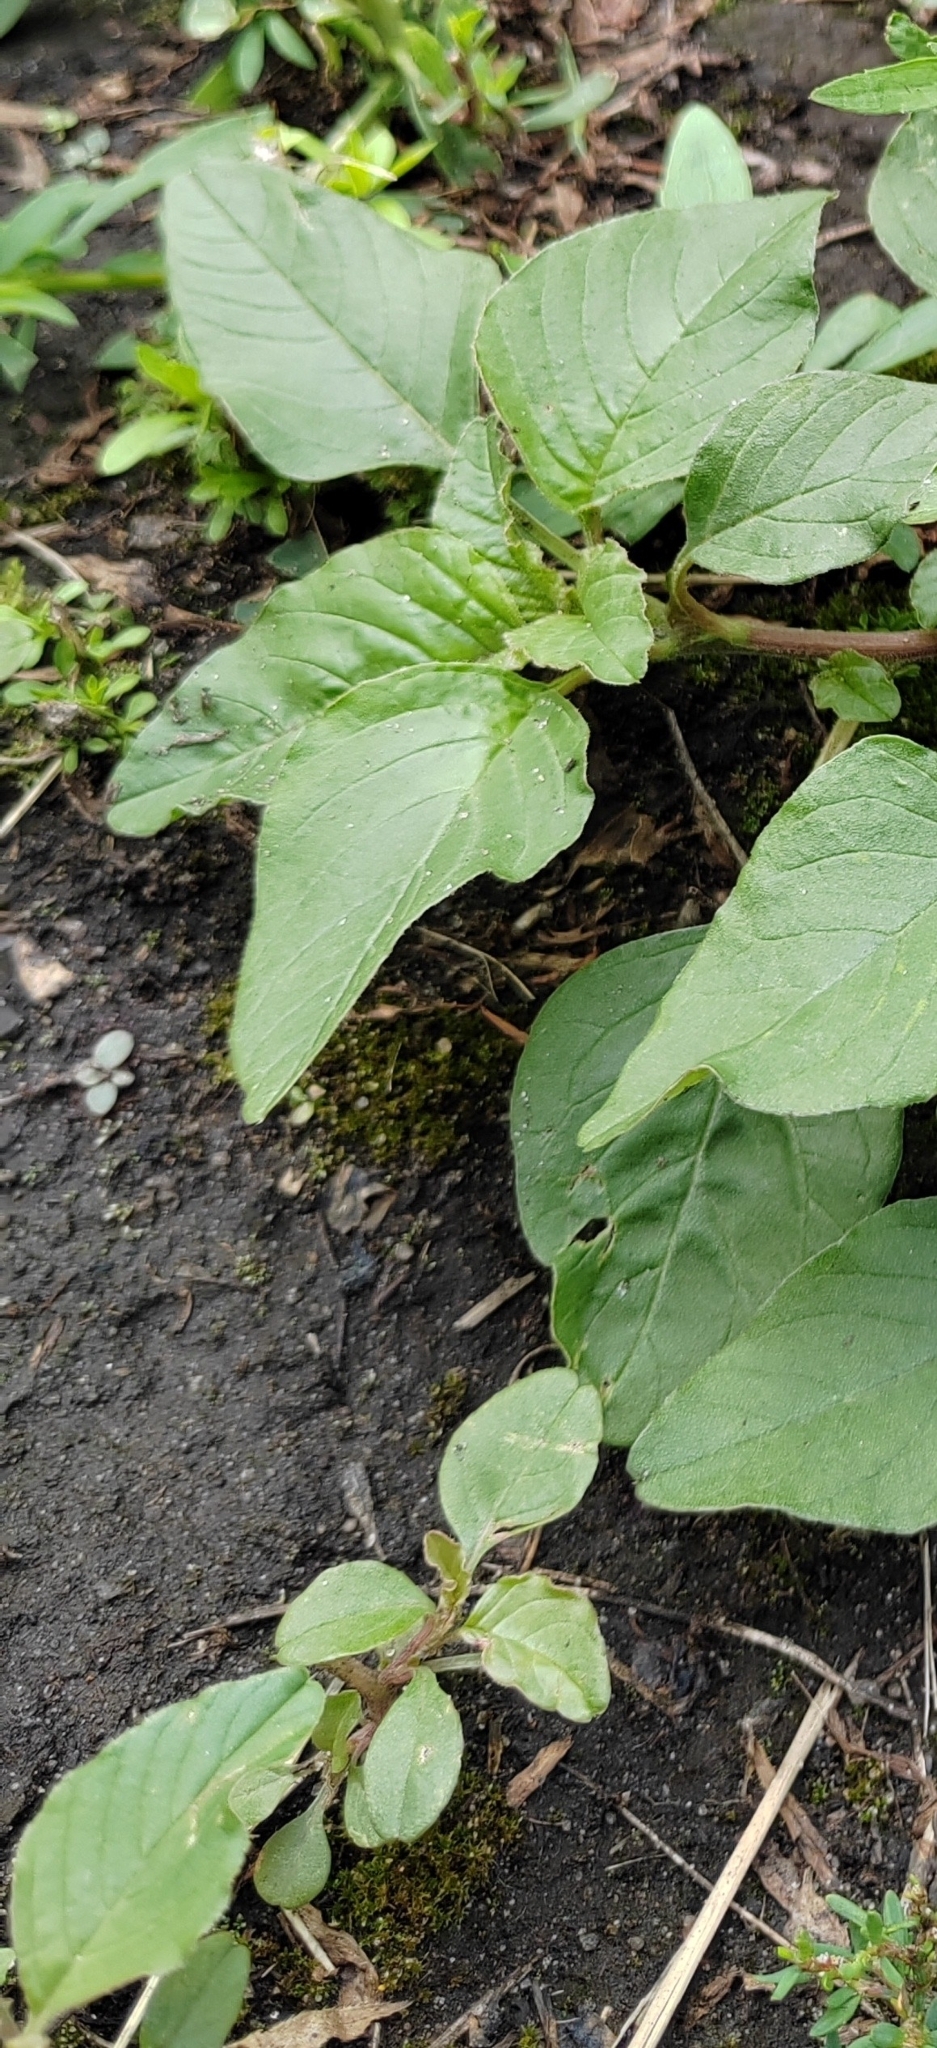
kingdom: Plantae
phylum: Tracheophyta
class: Magnoliopsida
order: Caryophyllales
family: Amaranthaceae
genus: Amaranthus
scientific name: Amaranthus retroflexus
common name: Redroot amaranth
